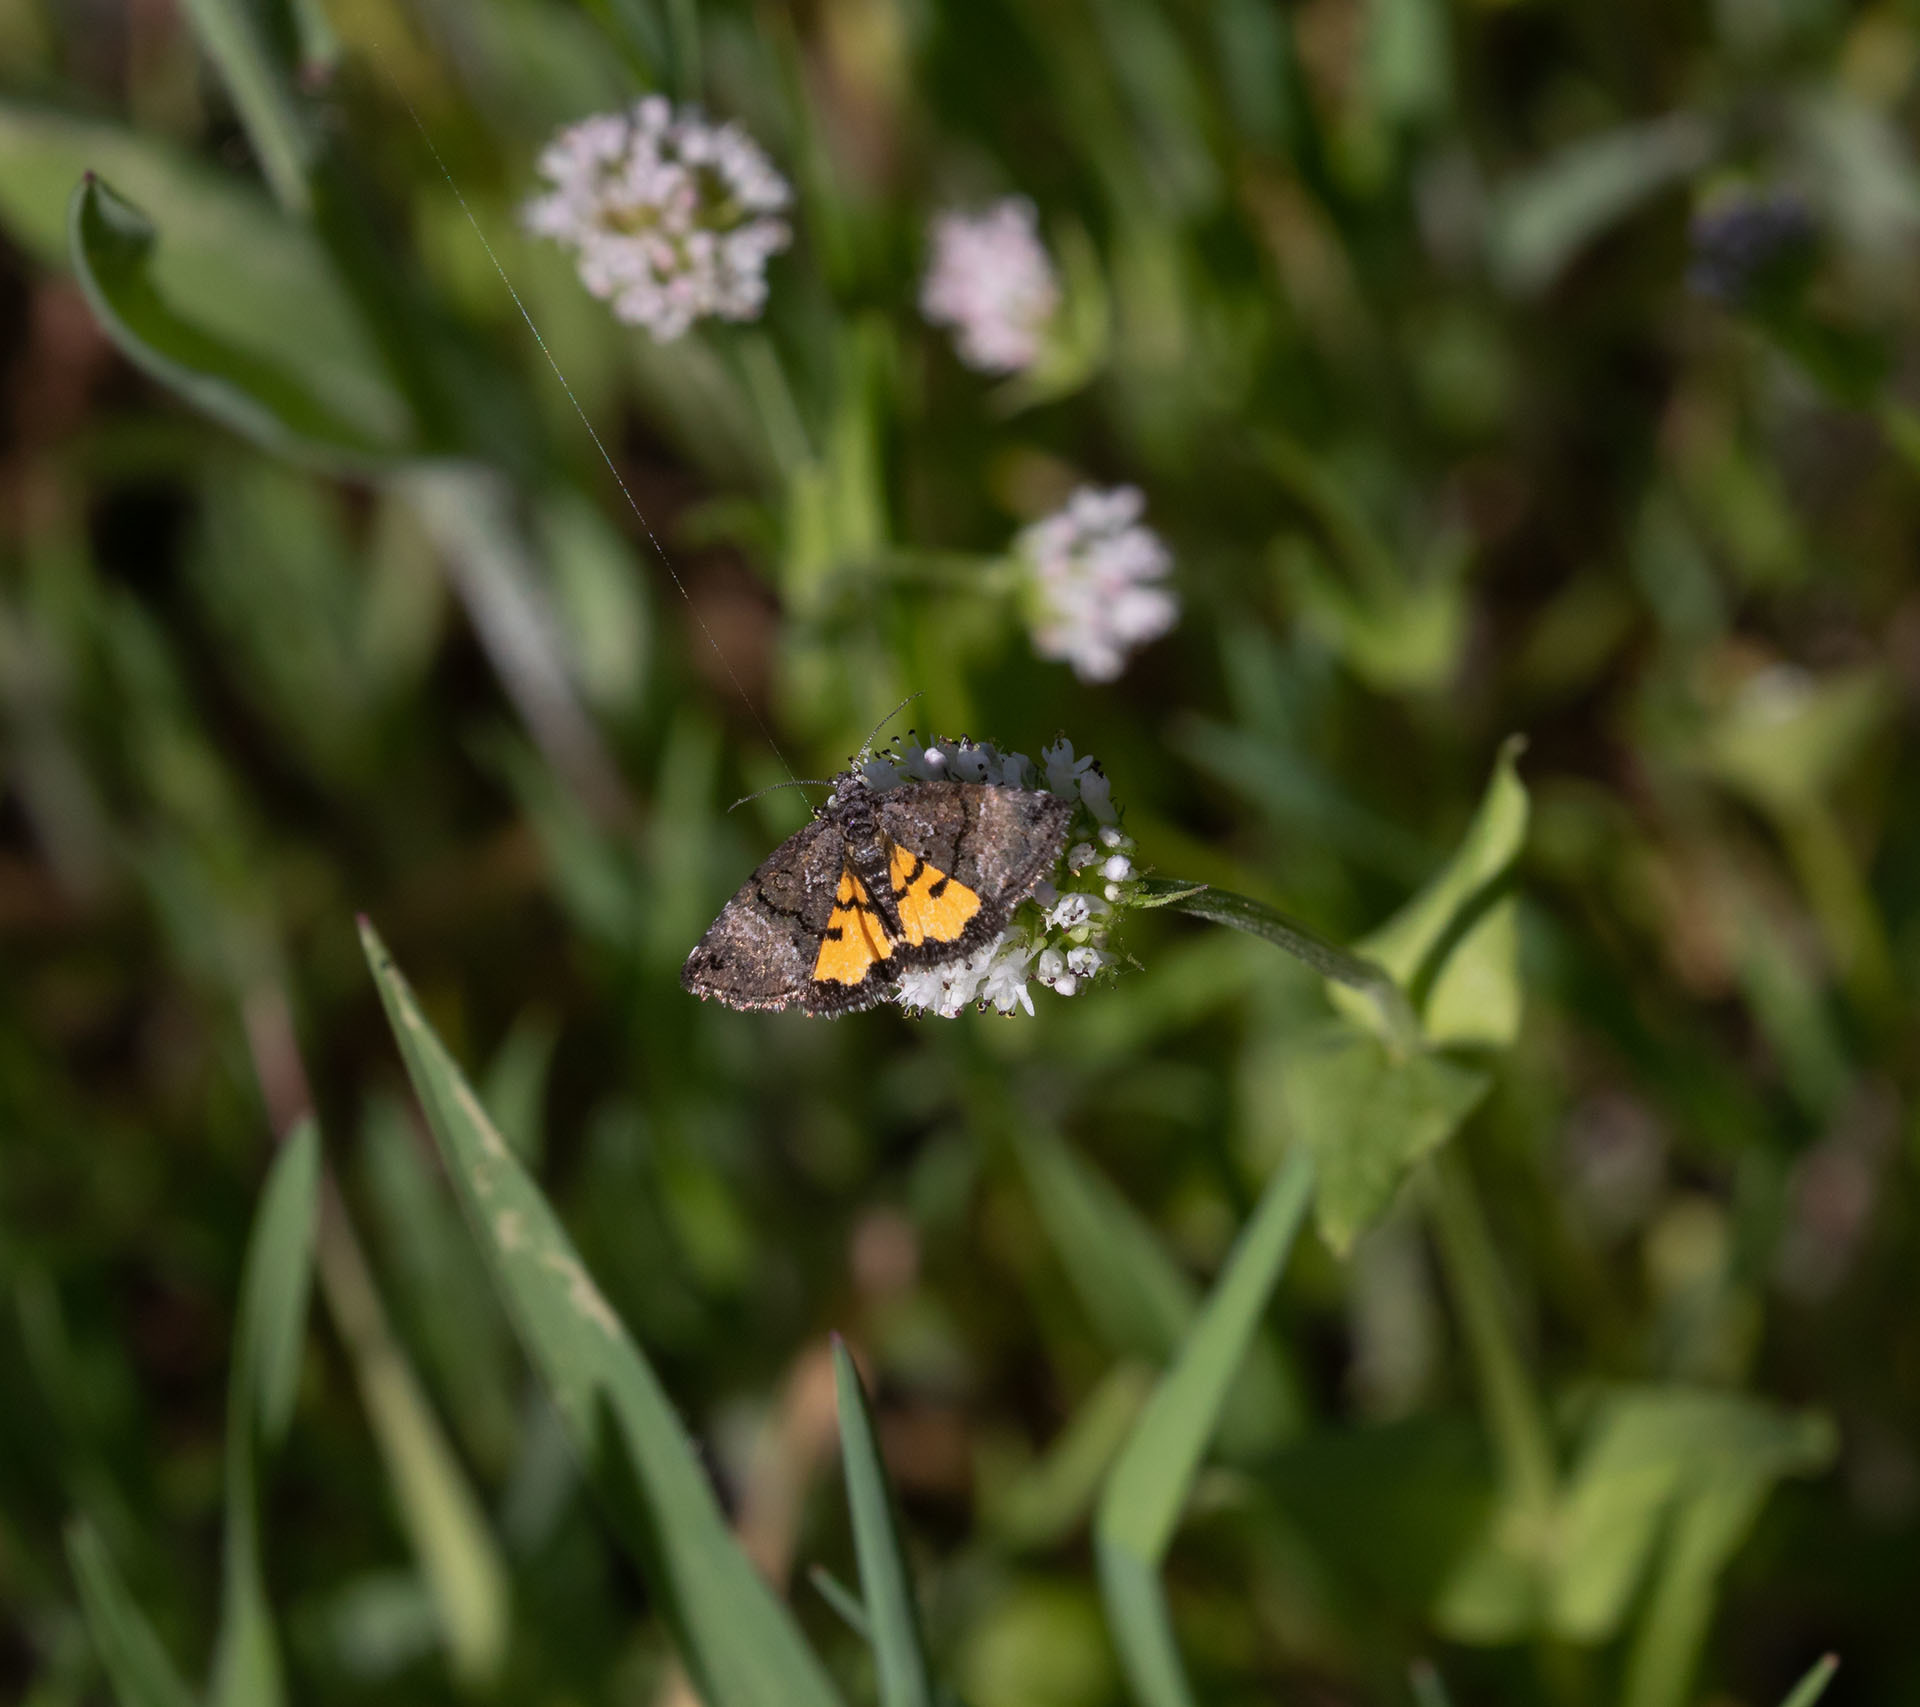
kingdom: Animalia
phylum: Arthropoda
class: Insecta
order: Lepidoptera
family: Noctuidae
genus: Annaphila
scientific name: Annaphila decia
